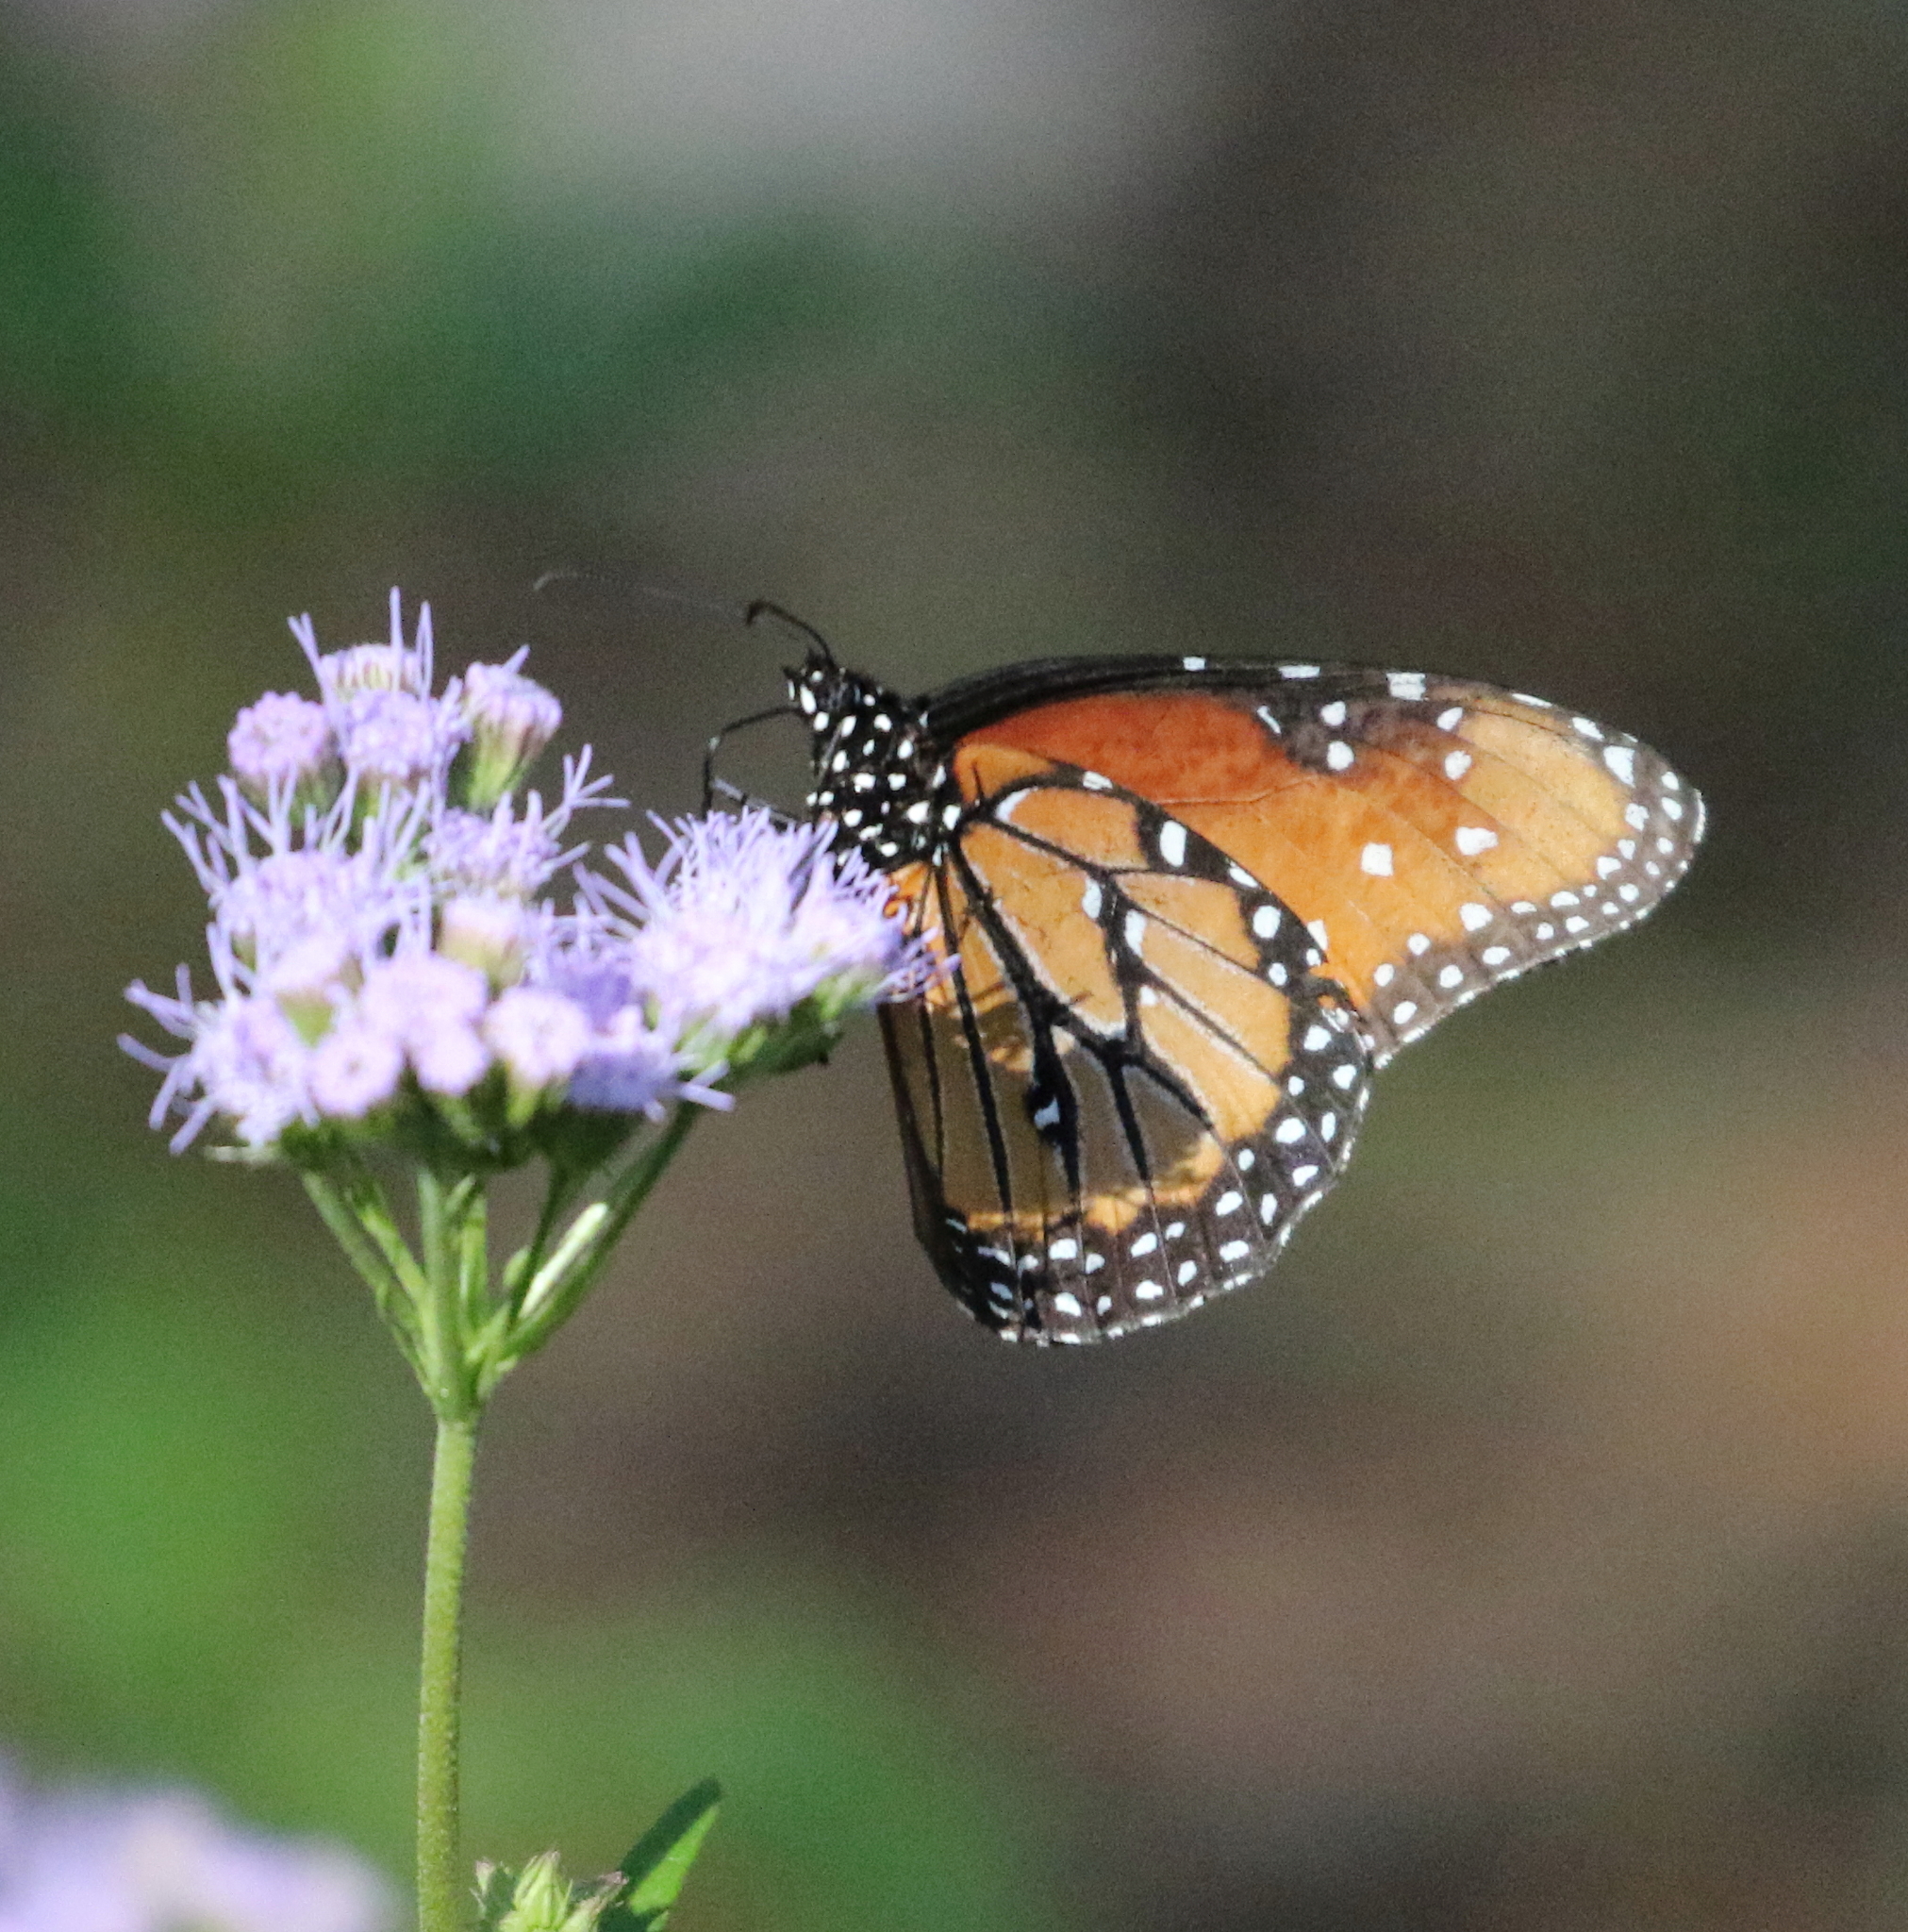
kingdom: Animalia
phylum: Arthropoda
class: Insecta
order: Lepidoptera
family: Nymphalidae
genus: Danaus
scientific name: Danaus gilippus
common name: Queen
